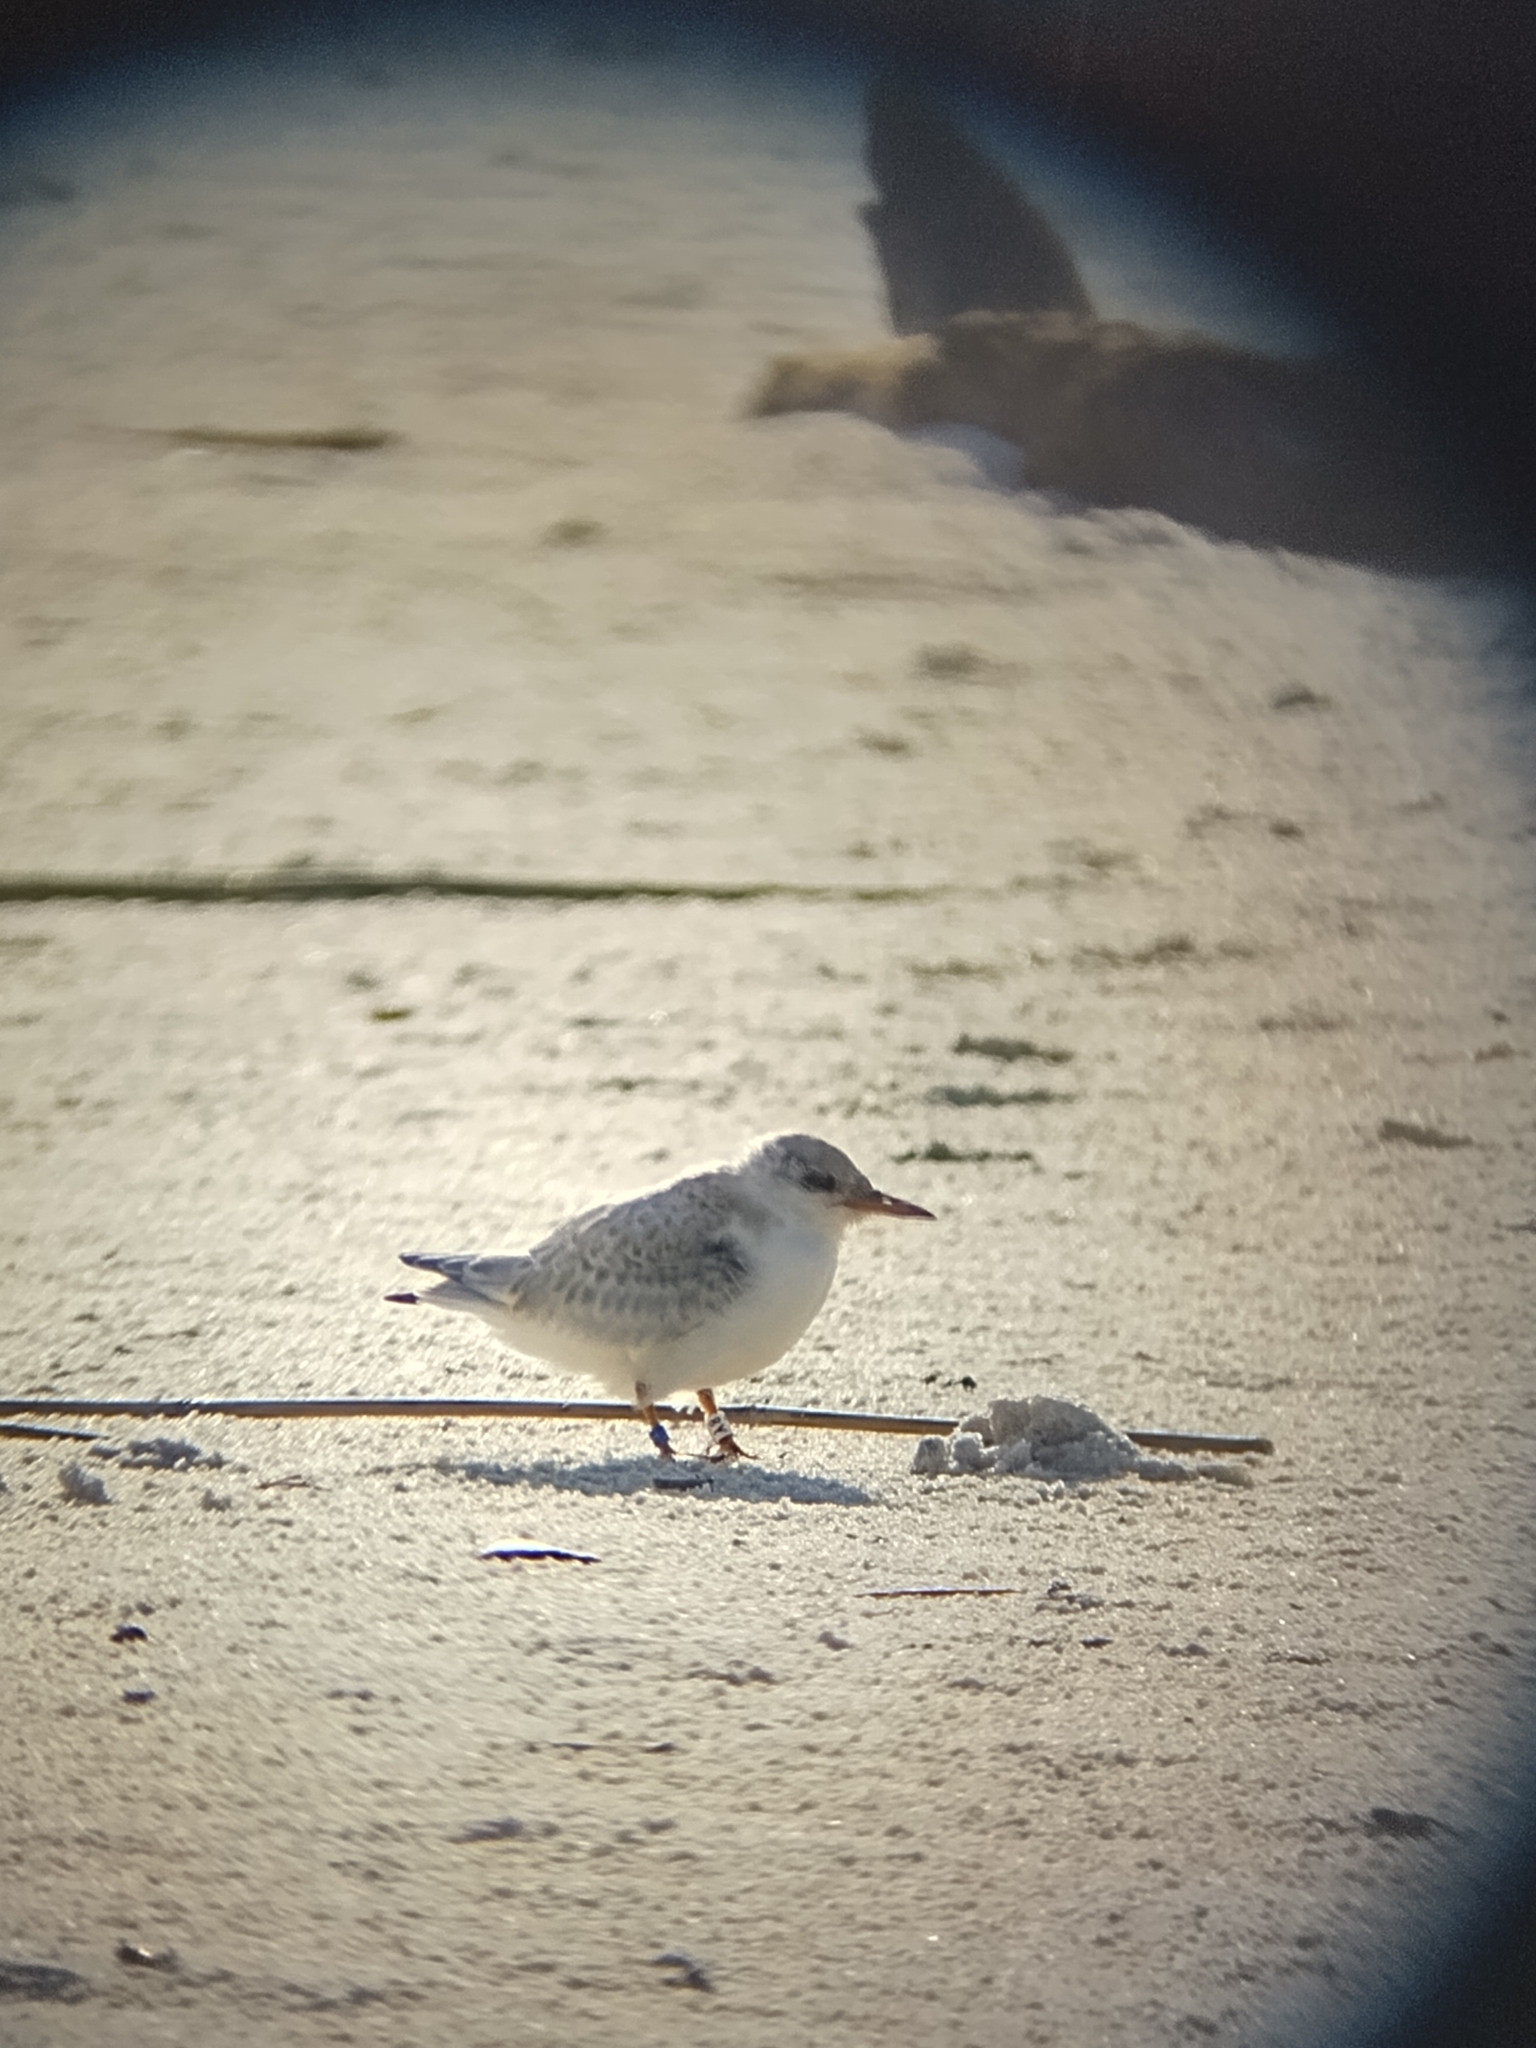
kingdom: Animalia
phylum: Chordata
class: Aves
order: Charadriiformes
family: Laridae
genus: Sternula
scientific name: Sternula antillarum
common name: Least tern
